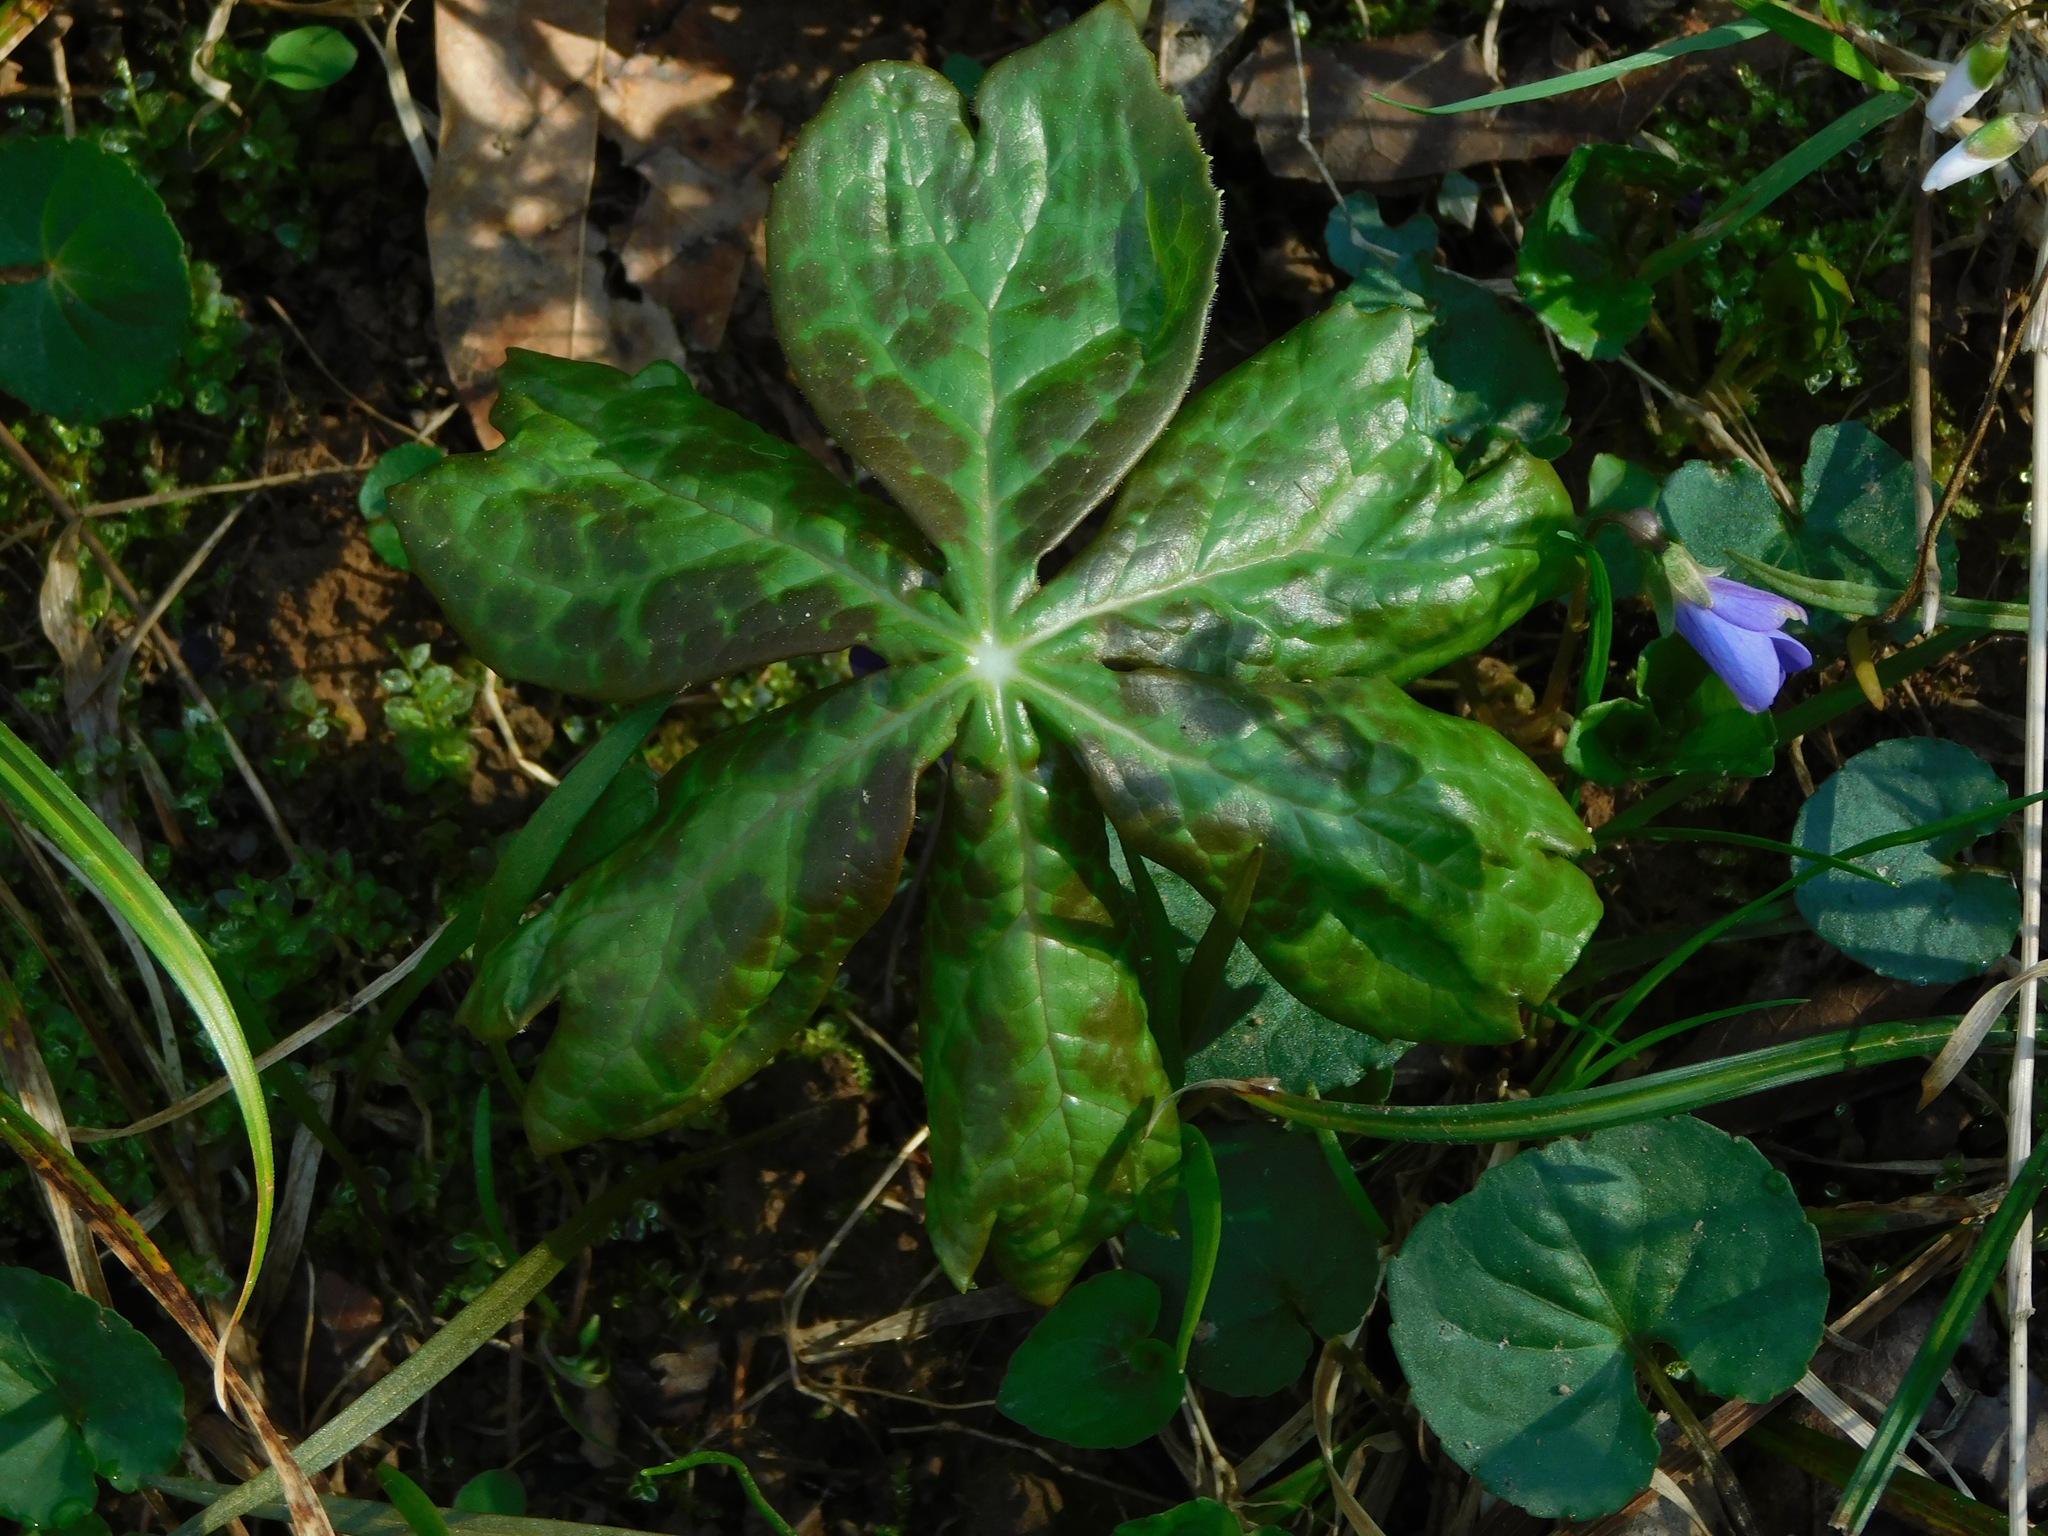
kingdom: Plantae
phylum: Tracheophyta
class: Magnoliopsida
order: Ranunculales
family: Berberidaceae
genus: Podophyllum
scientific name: Podophyllum peltatum
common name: Wild mandrake
